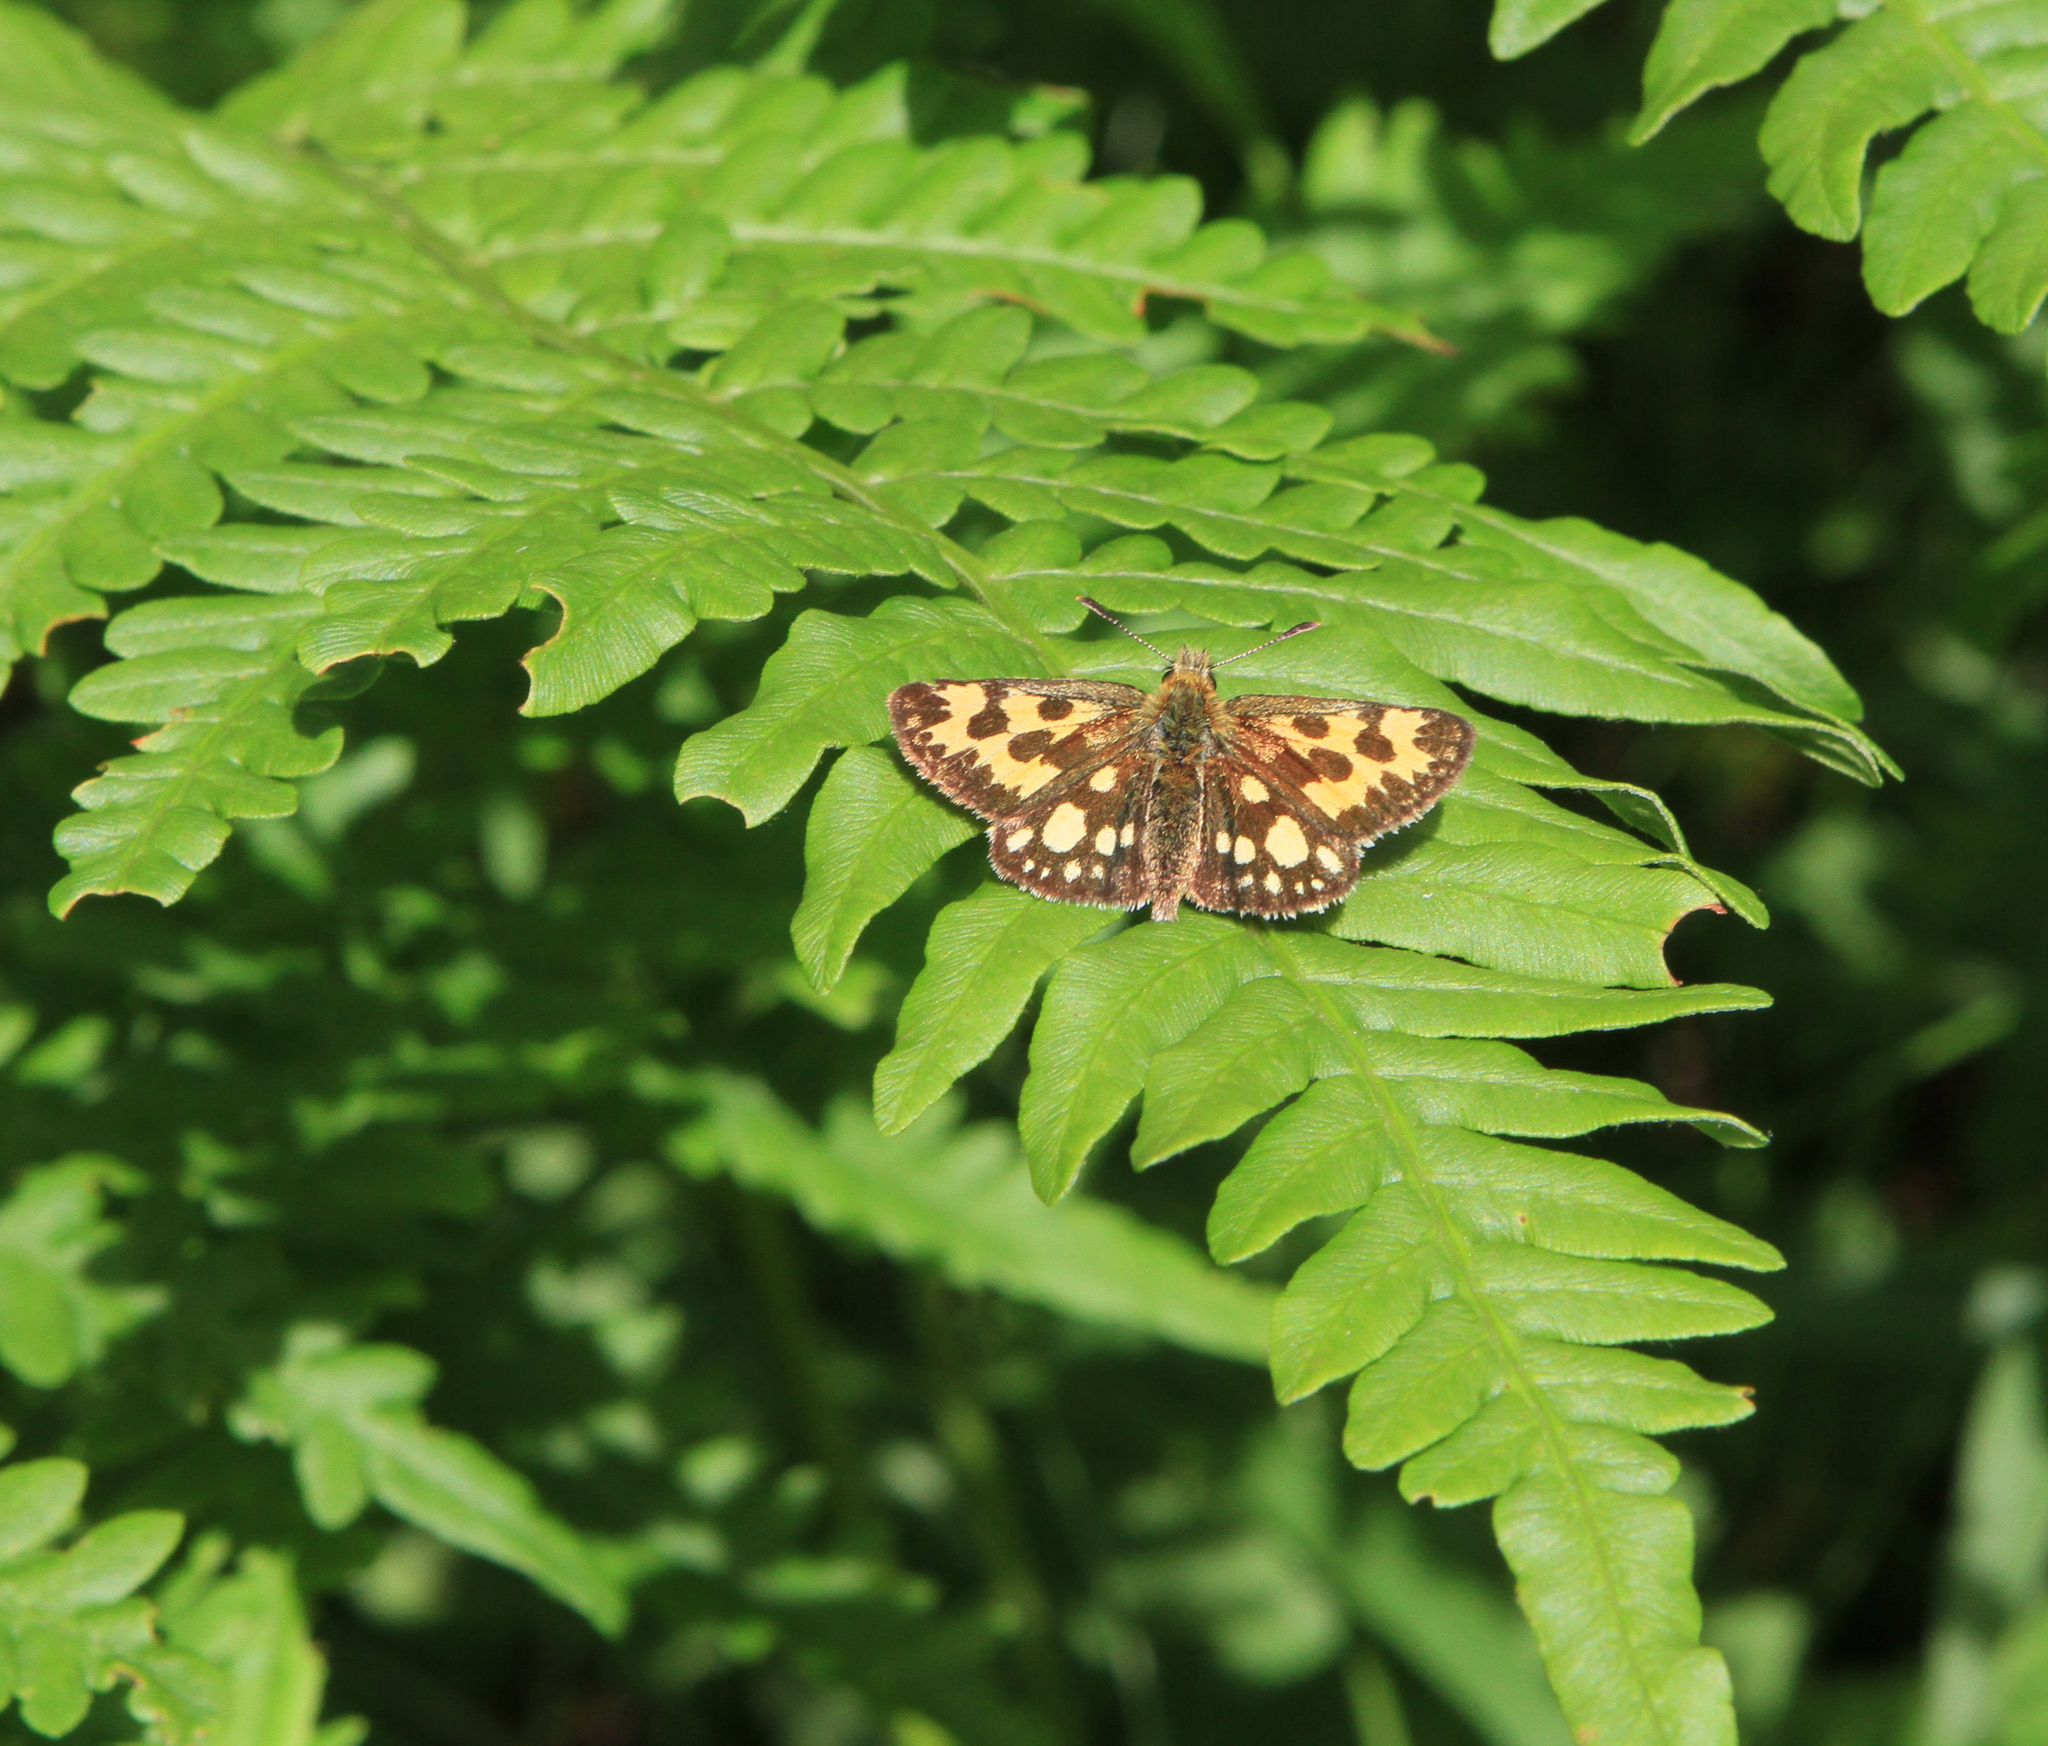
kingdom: Animalia
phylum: Arthropoda
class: Insecta
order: Lepidoptera
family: Hesperiidae
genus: Carterocephalus
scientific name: Carterocephalus silvicola
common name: Northern chequered skipper
